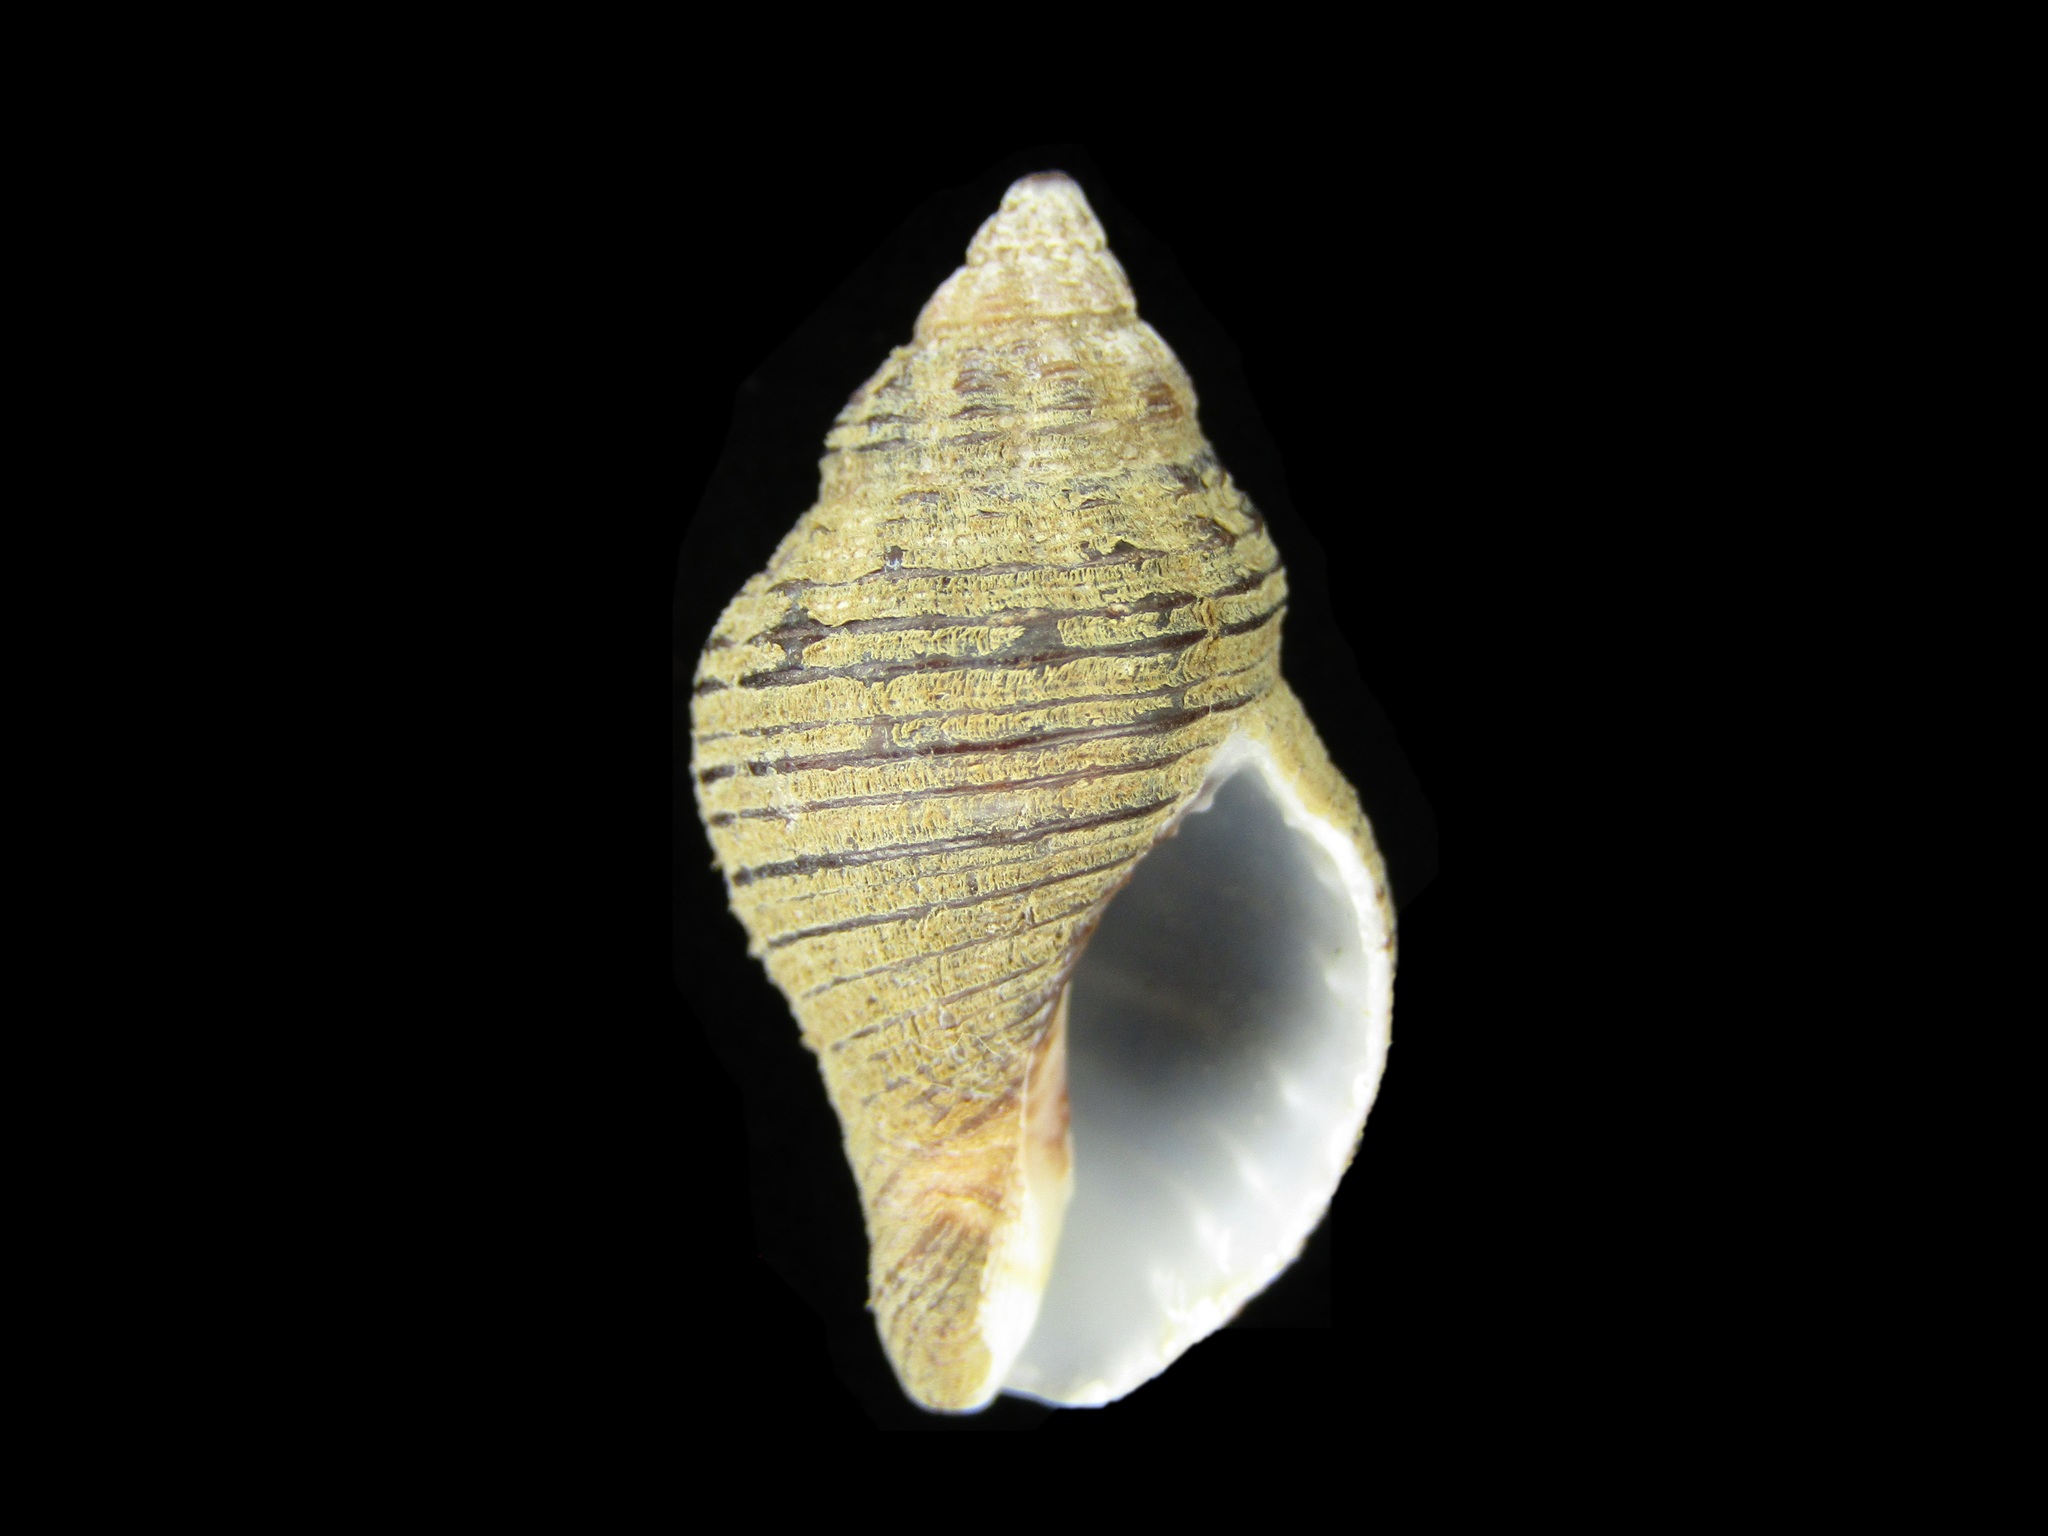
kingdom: Animalia
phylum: Mollusca
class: Gastropoda
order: Neogastropoda
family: Pisaniidae
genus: Pollia
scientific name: Pollia mollis
